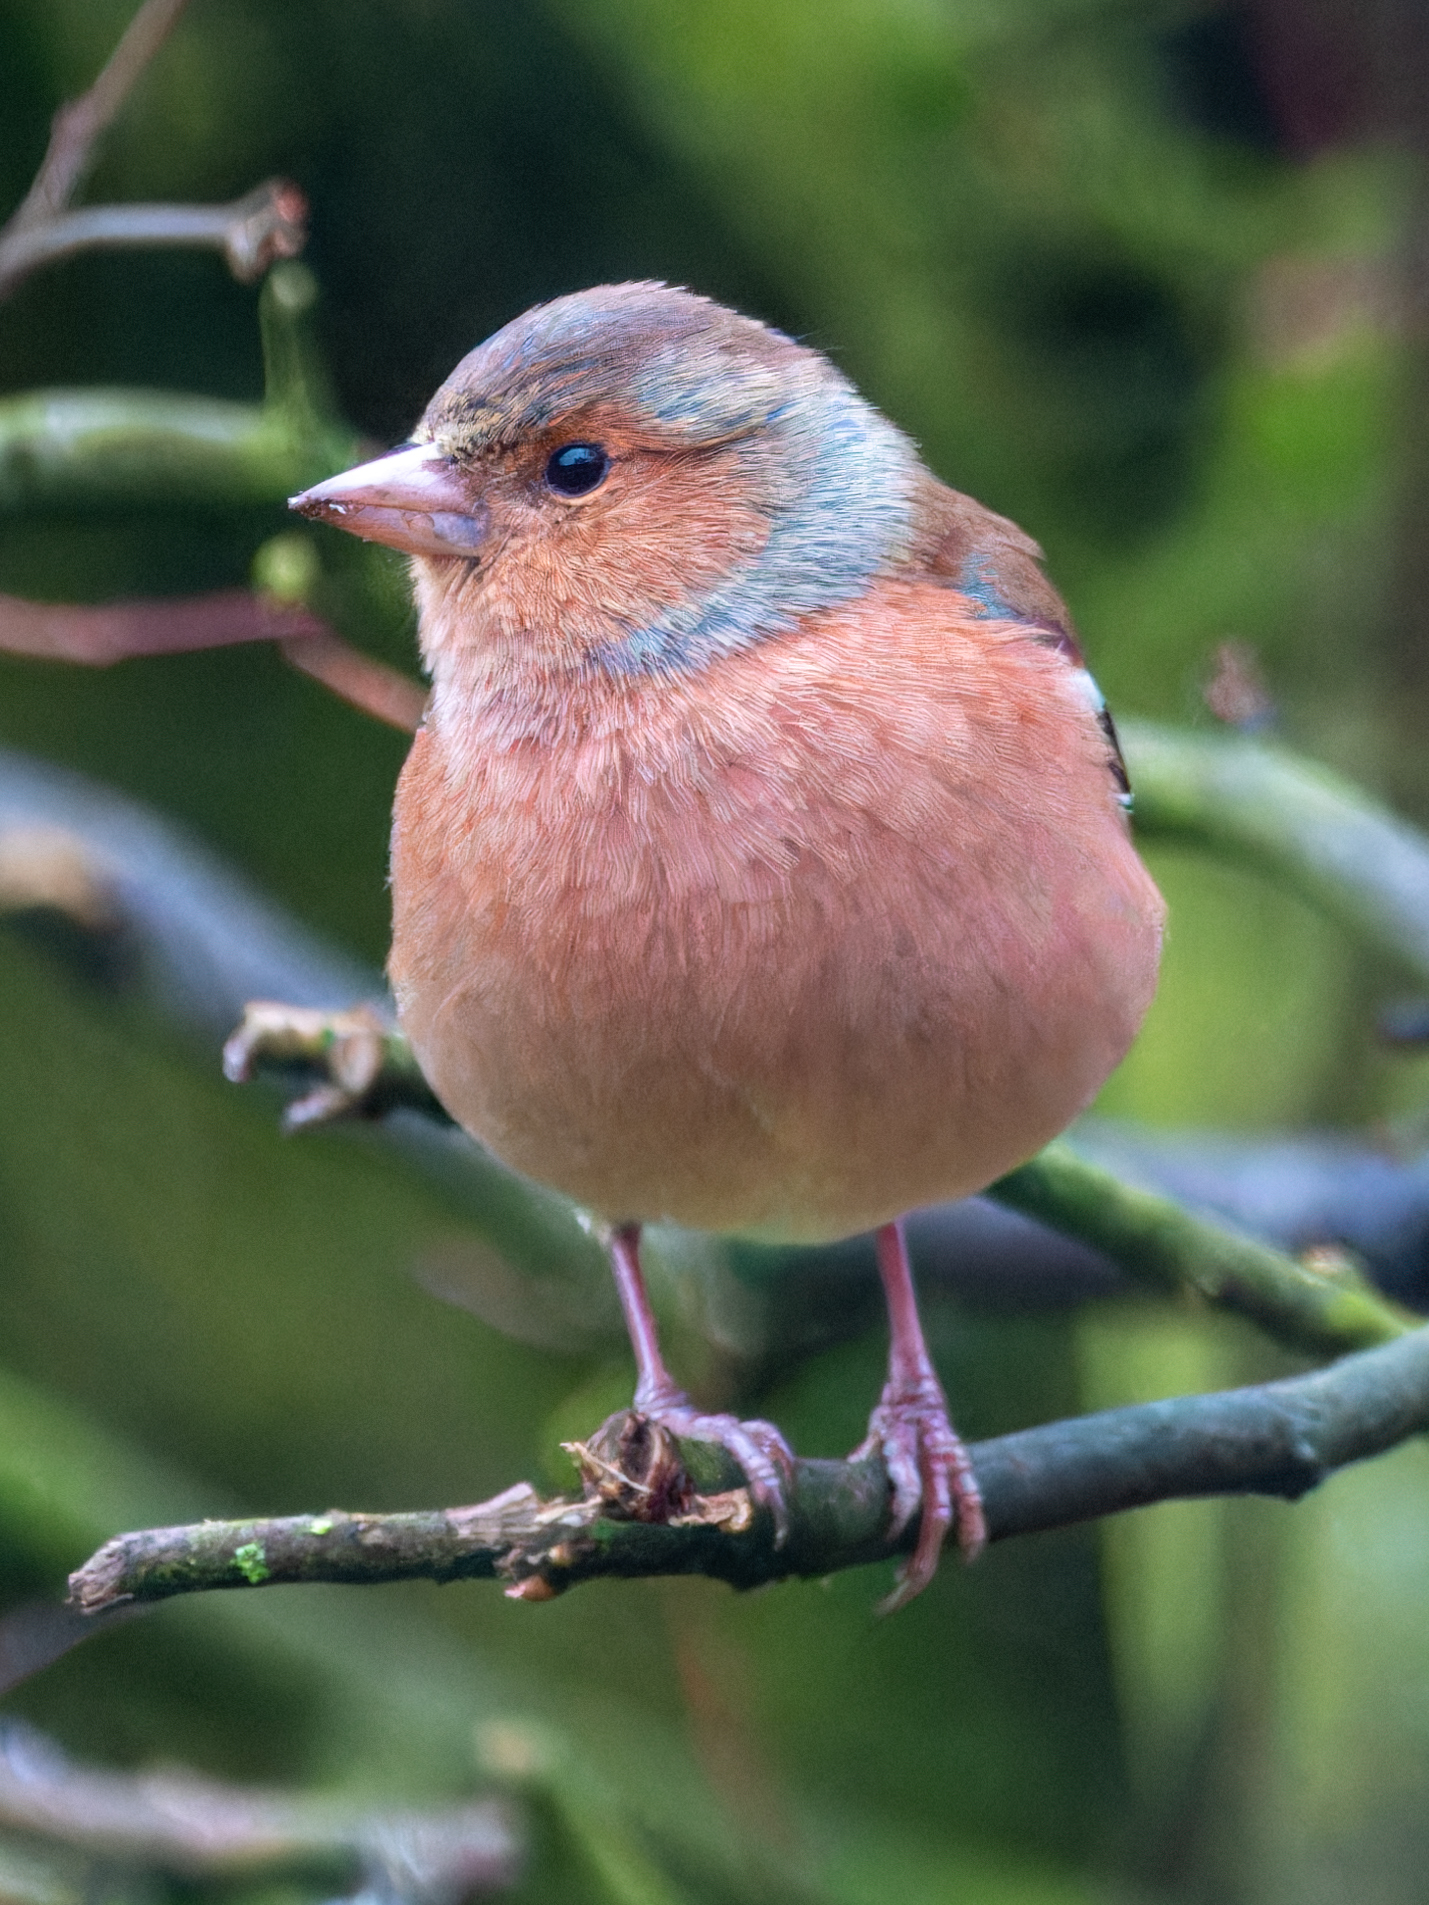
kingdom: Animalia
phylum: Chordata
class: Aves
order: Passeriformes
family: Fringillidae
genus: Fringilla
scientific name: Fringilla coelebs
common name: Common chaffinch
